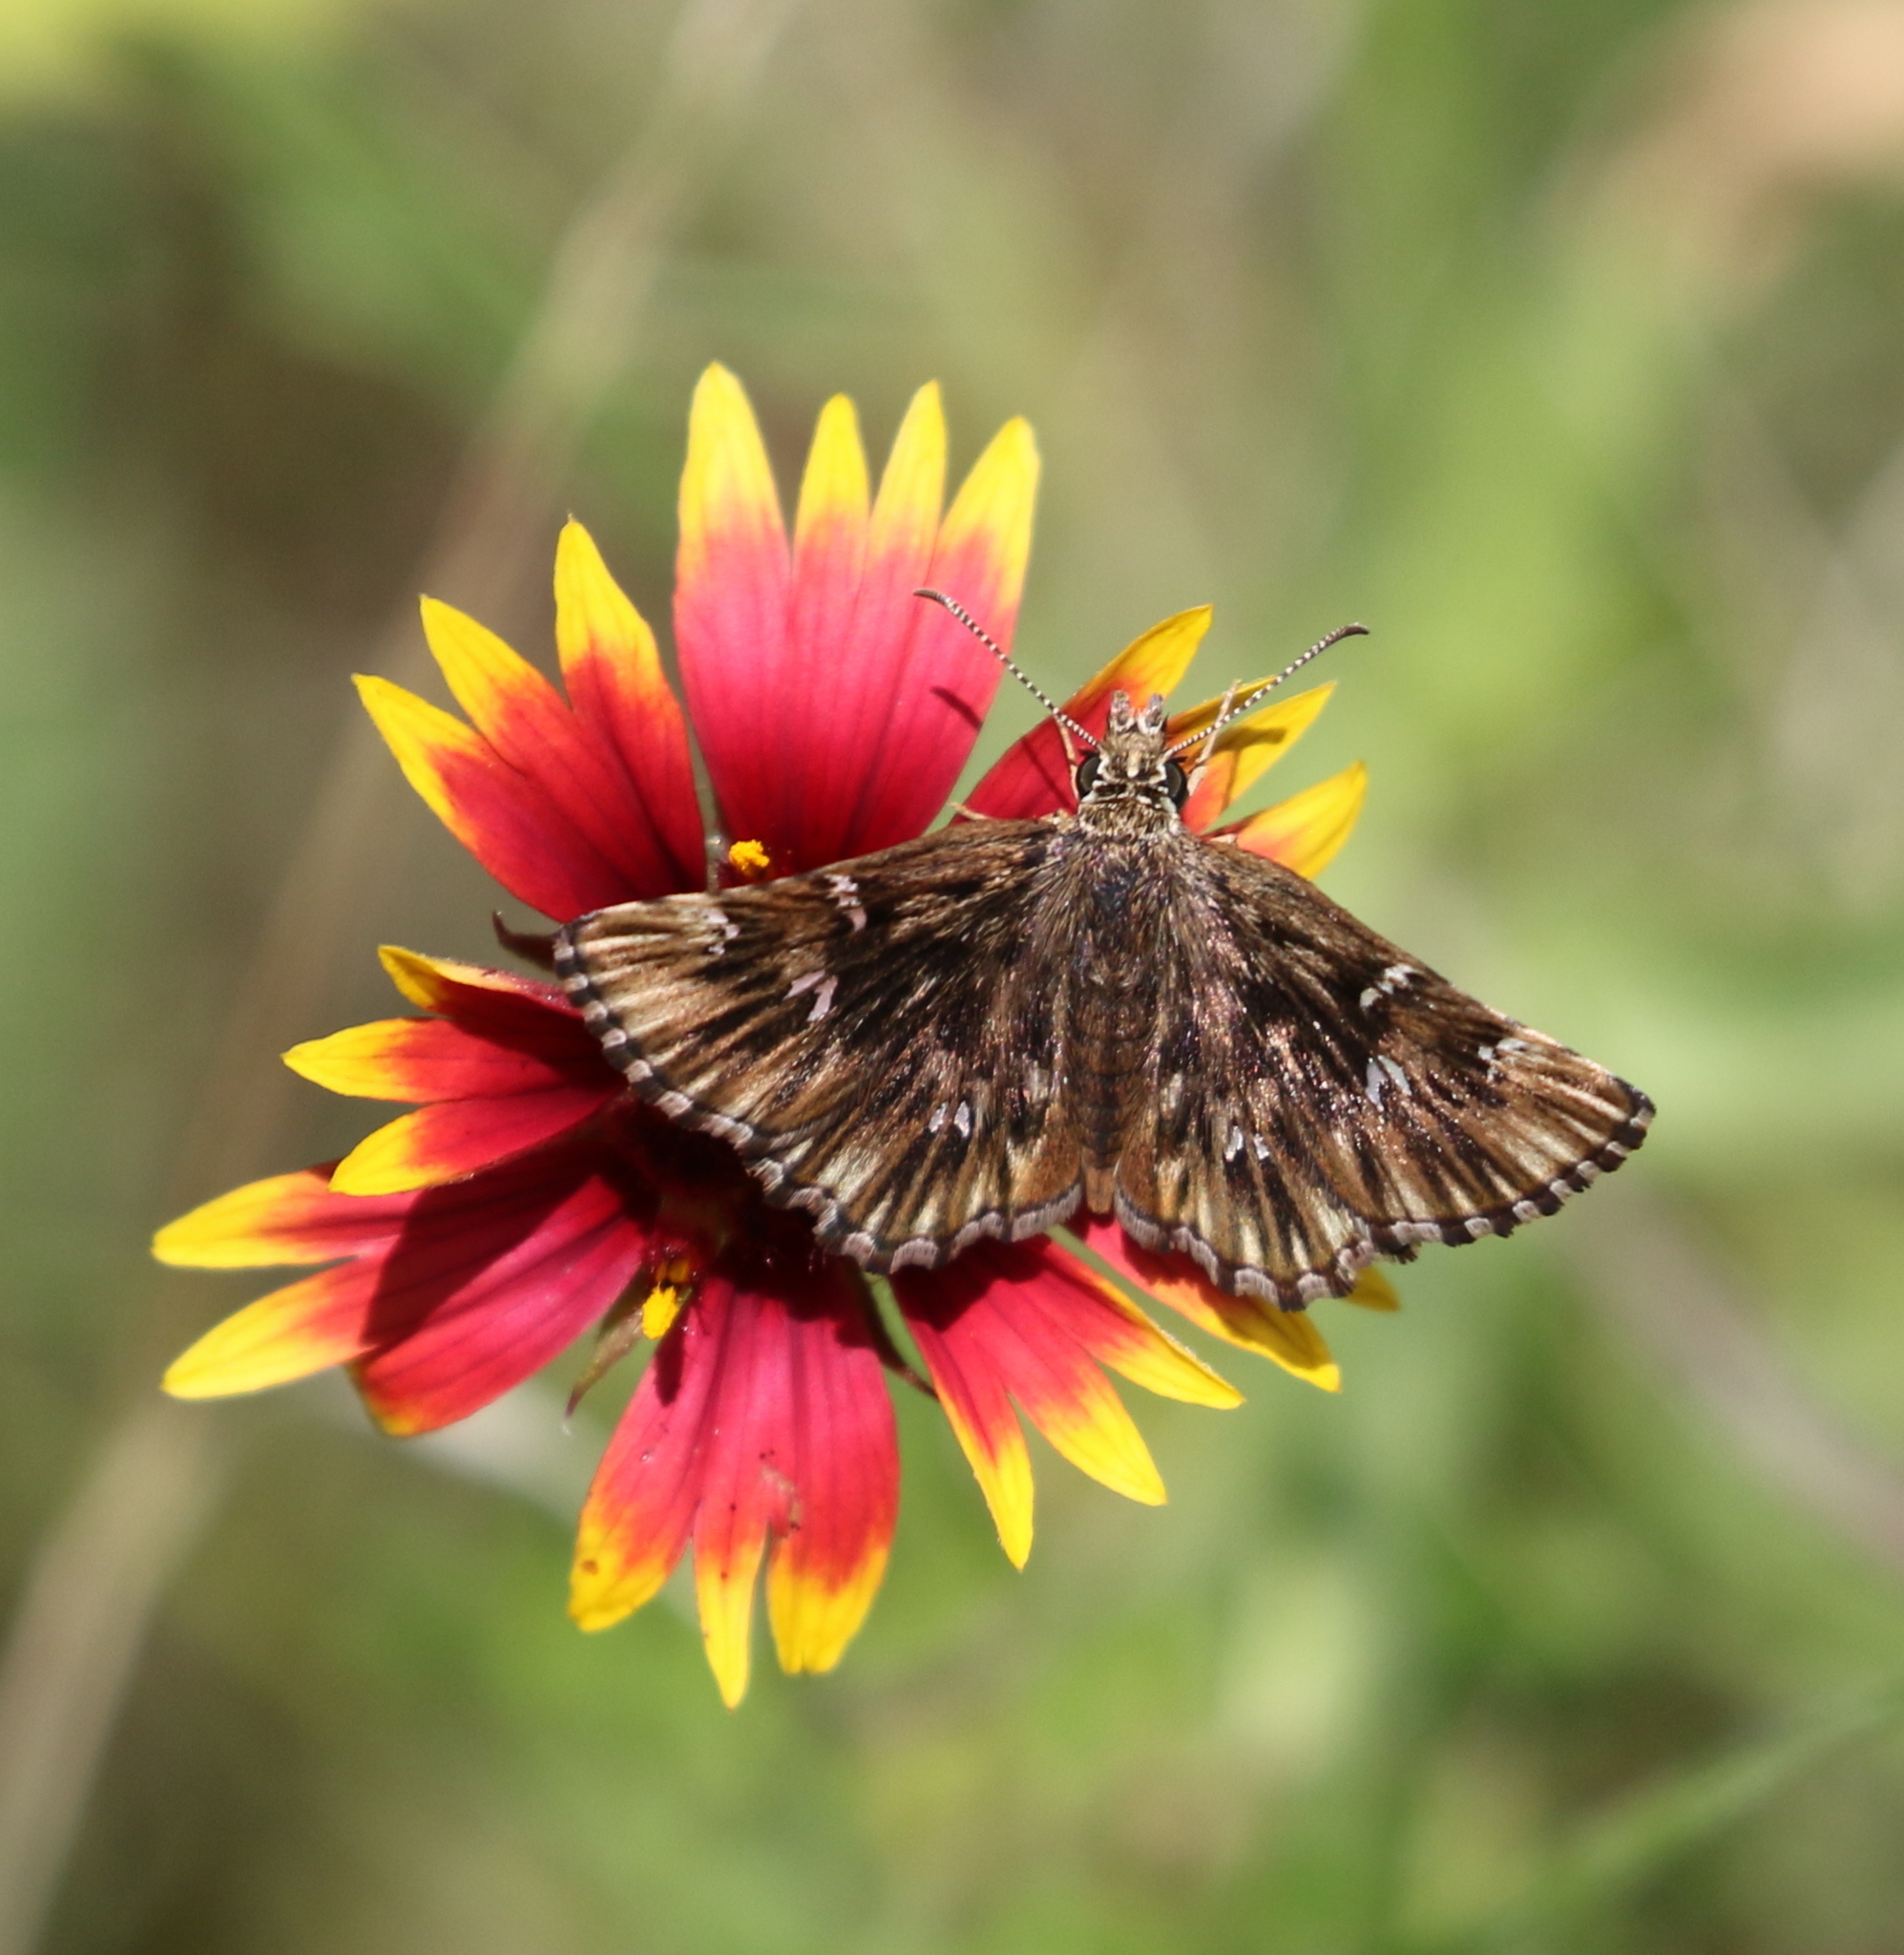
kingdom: Animalia
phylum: Arthropoda
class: Insecta
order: Lepidoptera
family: Hesperiidae
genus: Celotes
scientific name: Celotes nessus
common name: Common streaky-skipper
